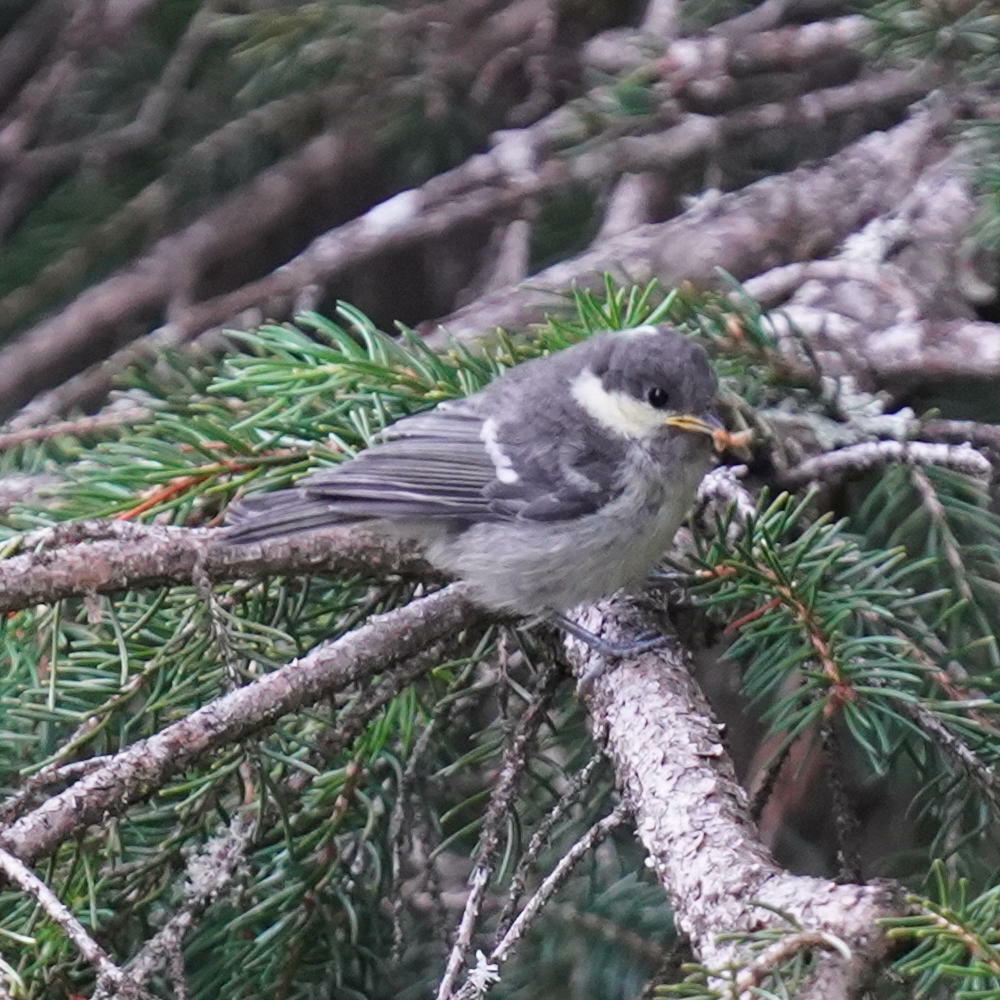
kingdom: Animalia
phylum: Chordata
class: Aves
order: Passeriformes
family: Paridae
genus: Periparus
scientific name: Periparus ater
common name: Coal tit
